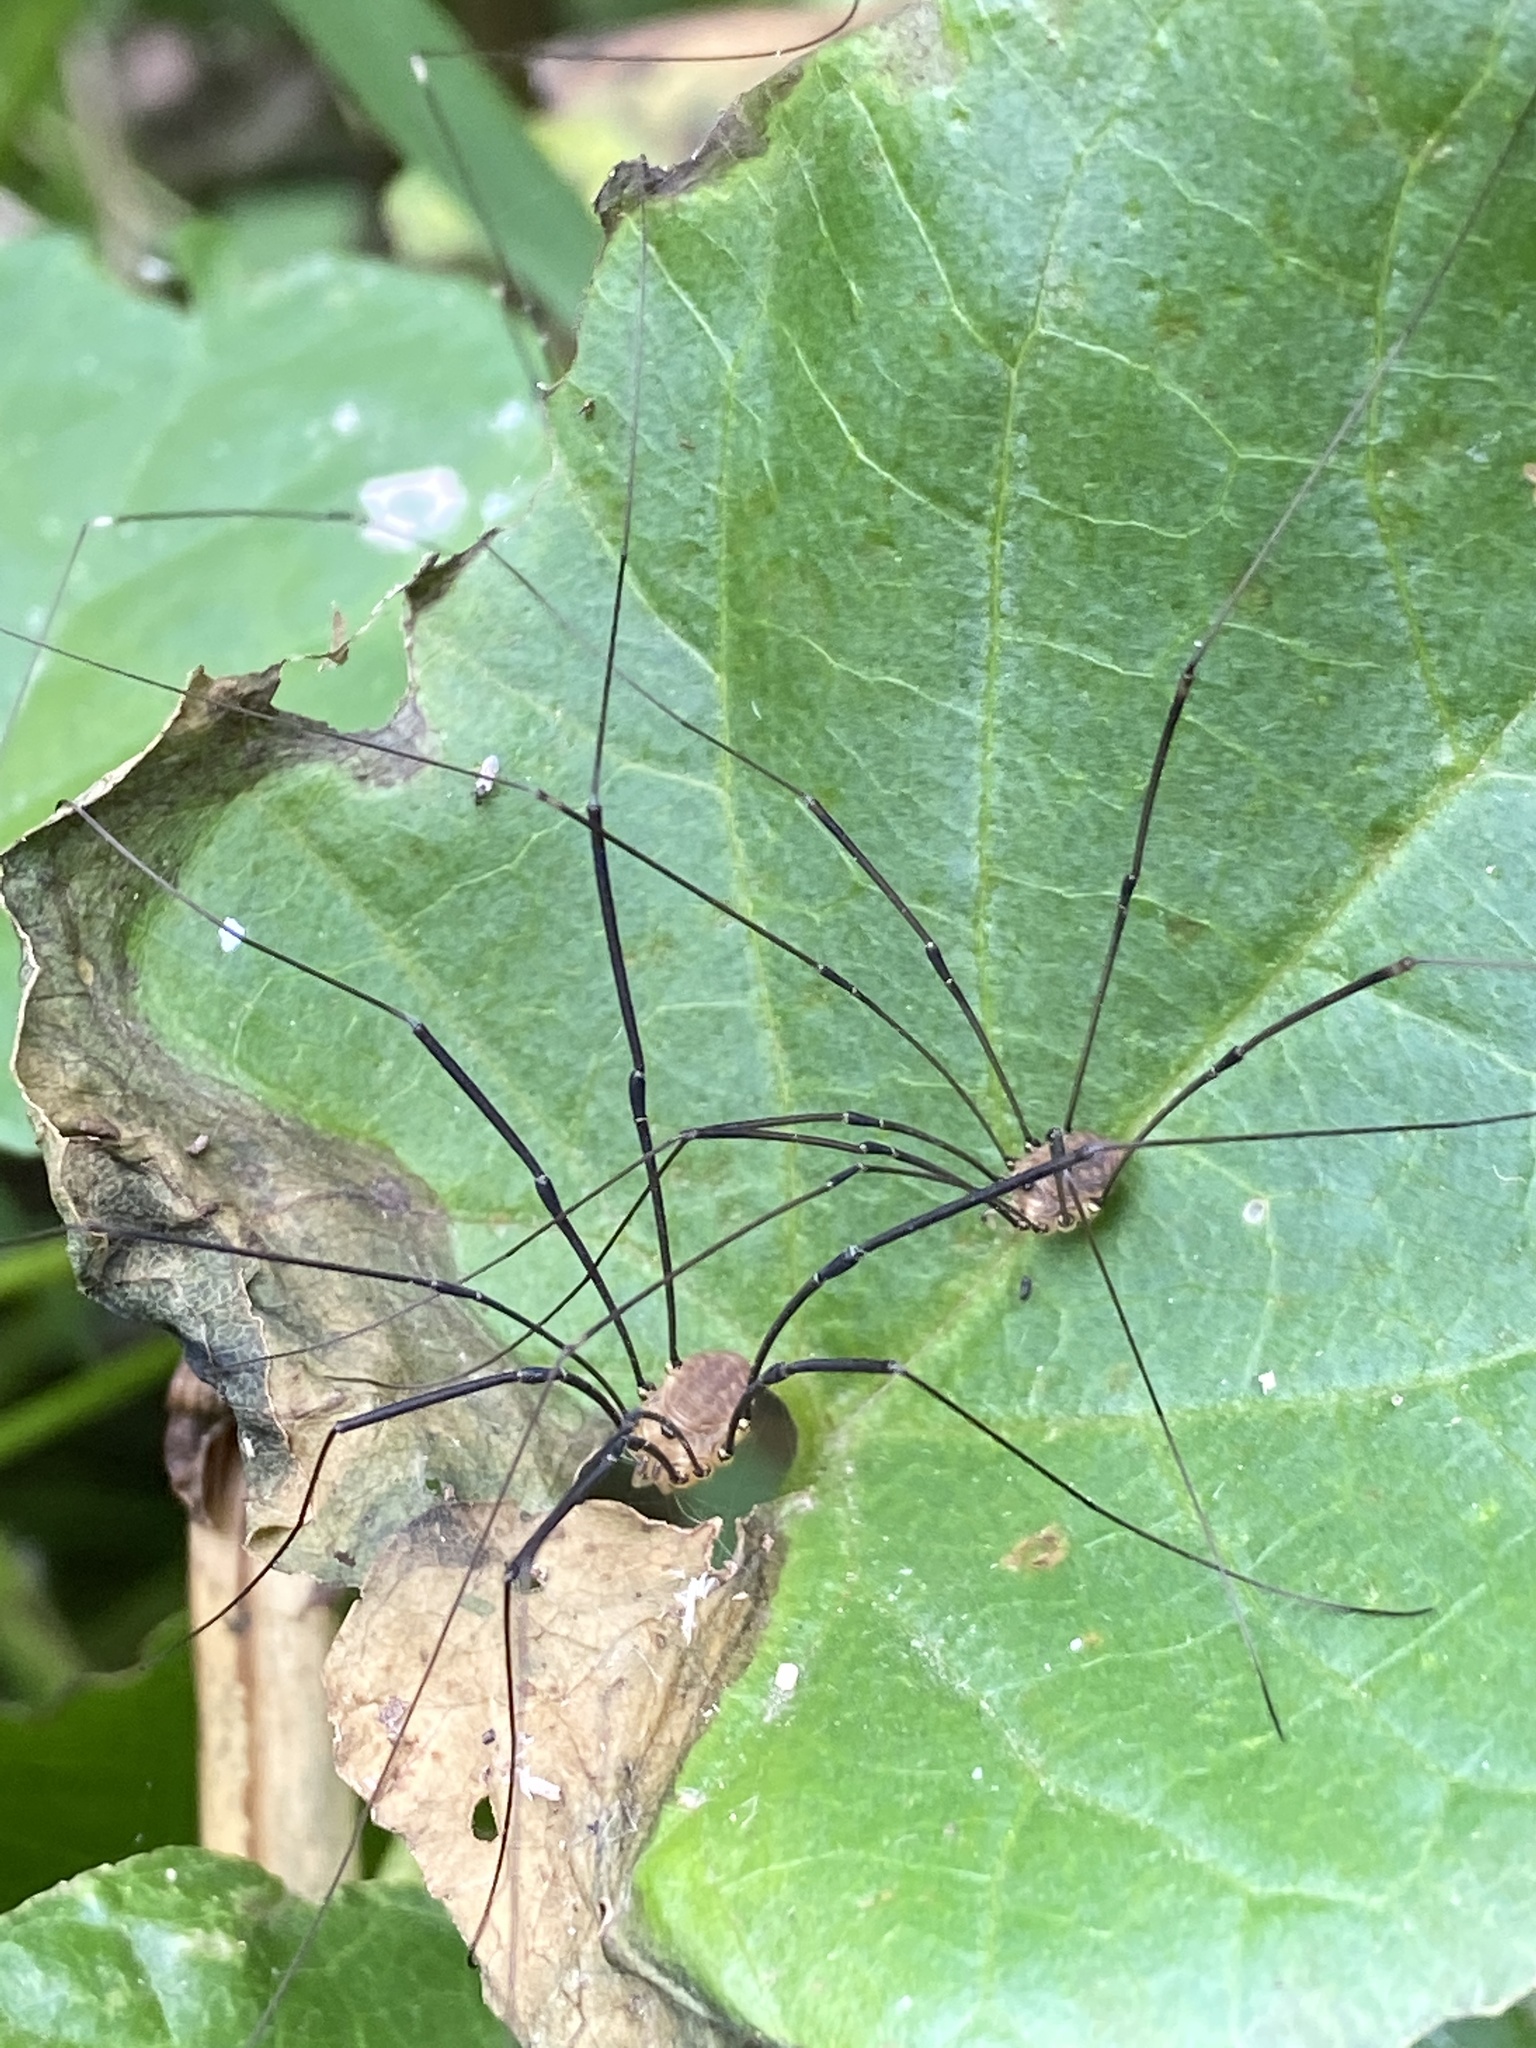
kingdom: Animalia
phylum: Arthropoda
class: Arachnida
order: Opiliones
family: Sclerosomatidae
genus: Leiobunum
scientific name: Leiobunum rotundum
